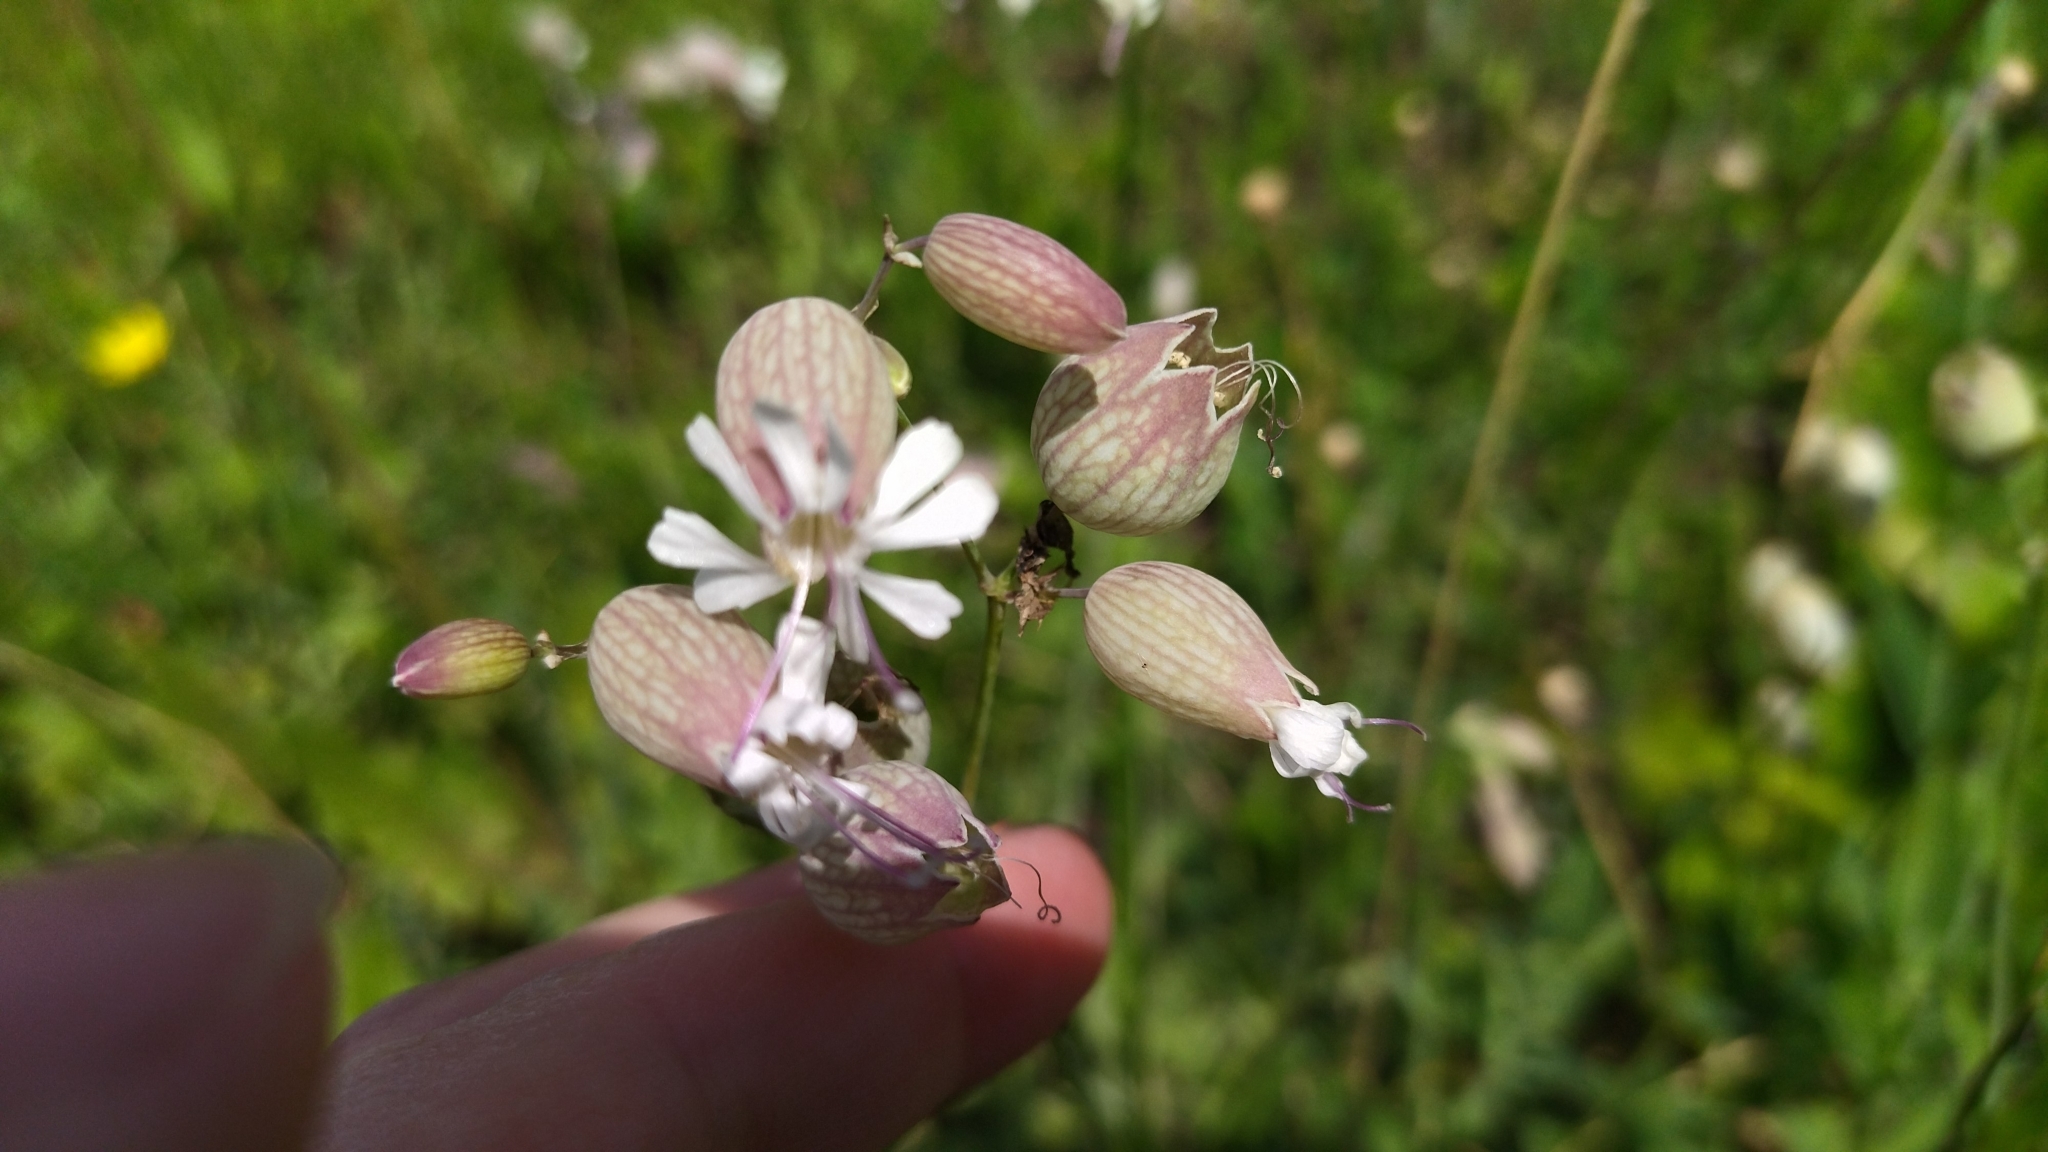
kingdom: Plantae
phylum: Tracheophyta
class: Magnoliopsida
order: Caryophyllales
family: Caryophyllaceae
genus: Silene
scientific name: Silene vulgaris
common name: Bladder campion
